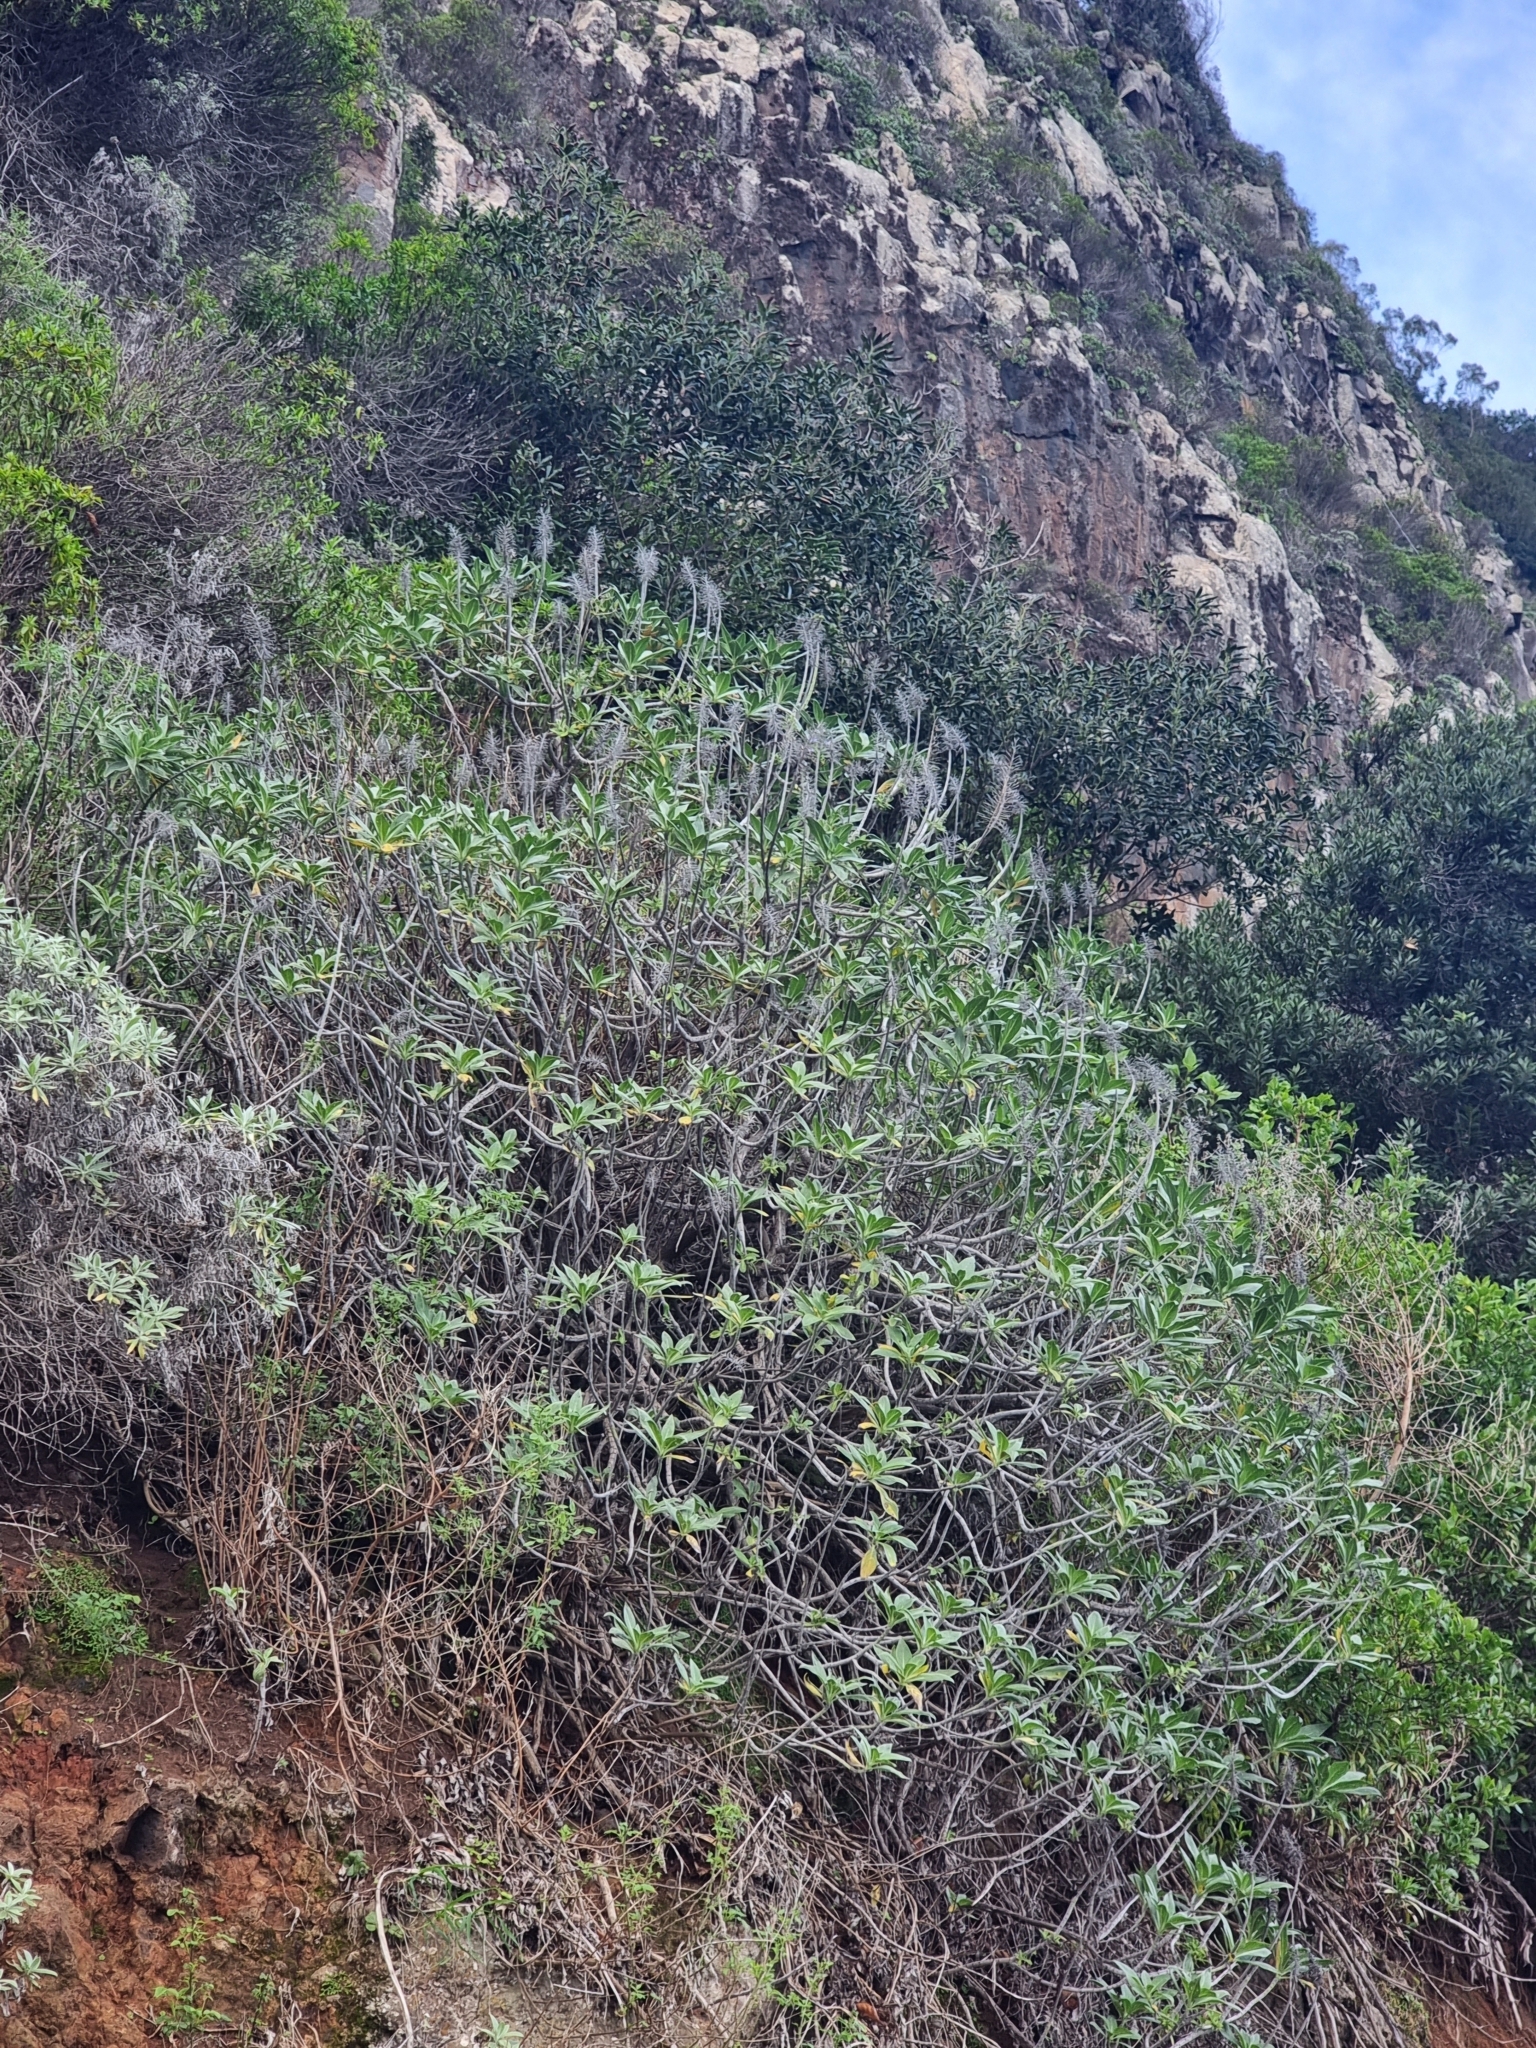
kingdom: Plantae
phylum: Tracheophyta
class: Magnoliopsida
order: Boraginales
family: Boraginaceae
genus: Echium
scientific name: Echium nervosum
